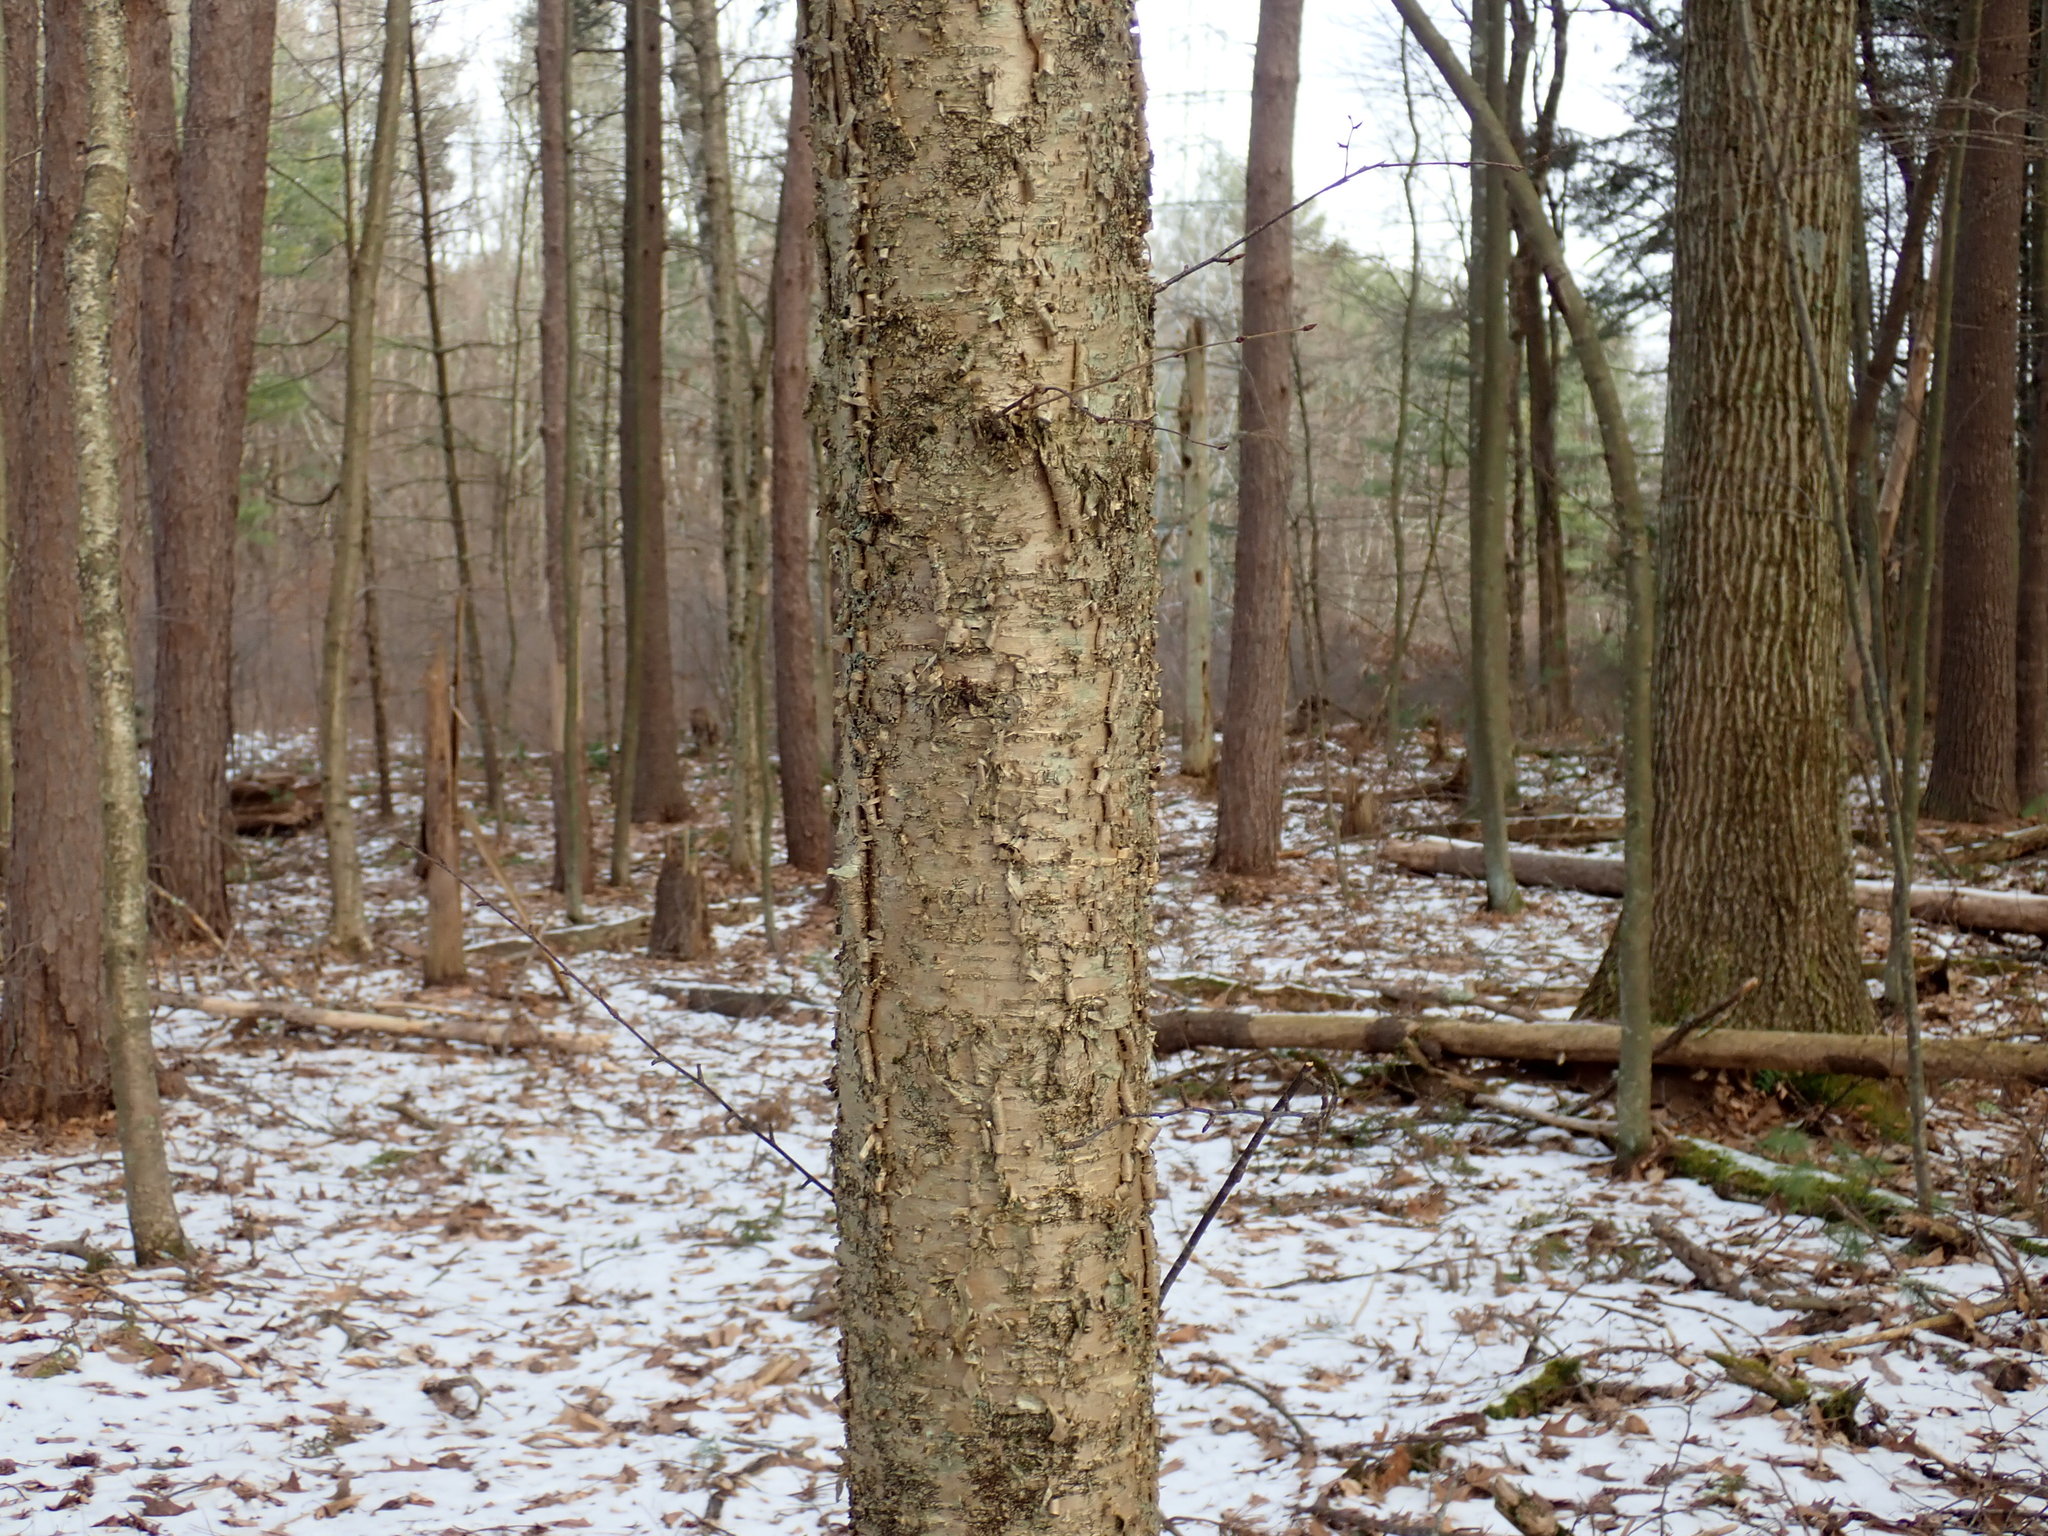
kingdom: Plantae
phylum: Tracheophyta
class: Magnoliopsida
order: Fagales
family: Betulaceae
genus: Betula
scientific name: Betula alleghaniensis
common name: Yellow birch
